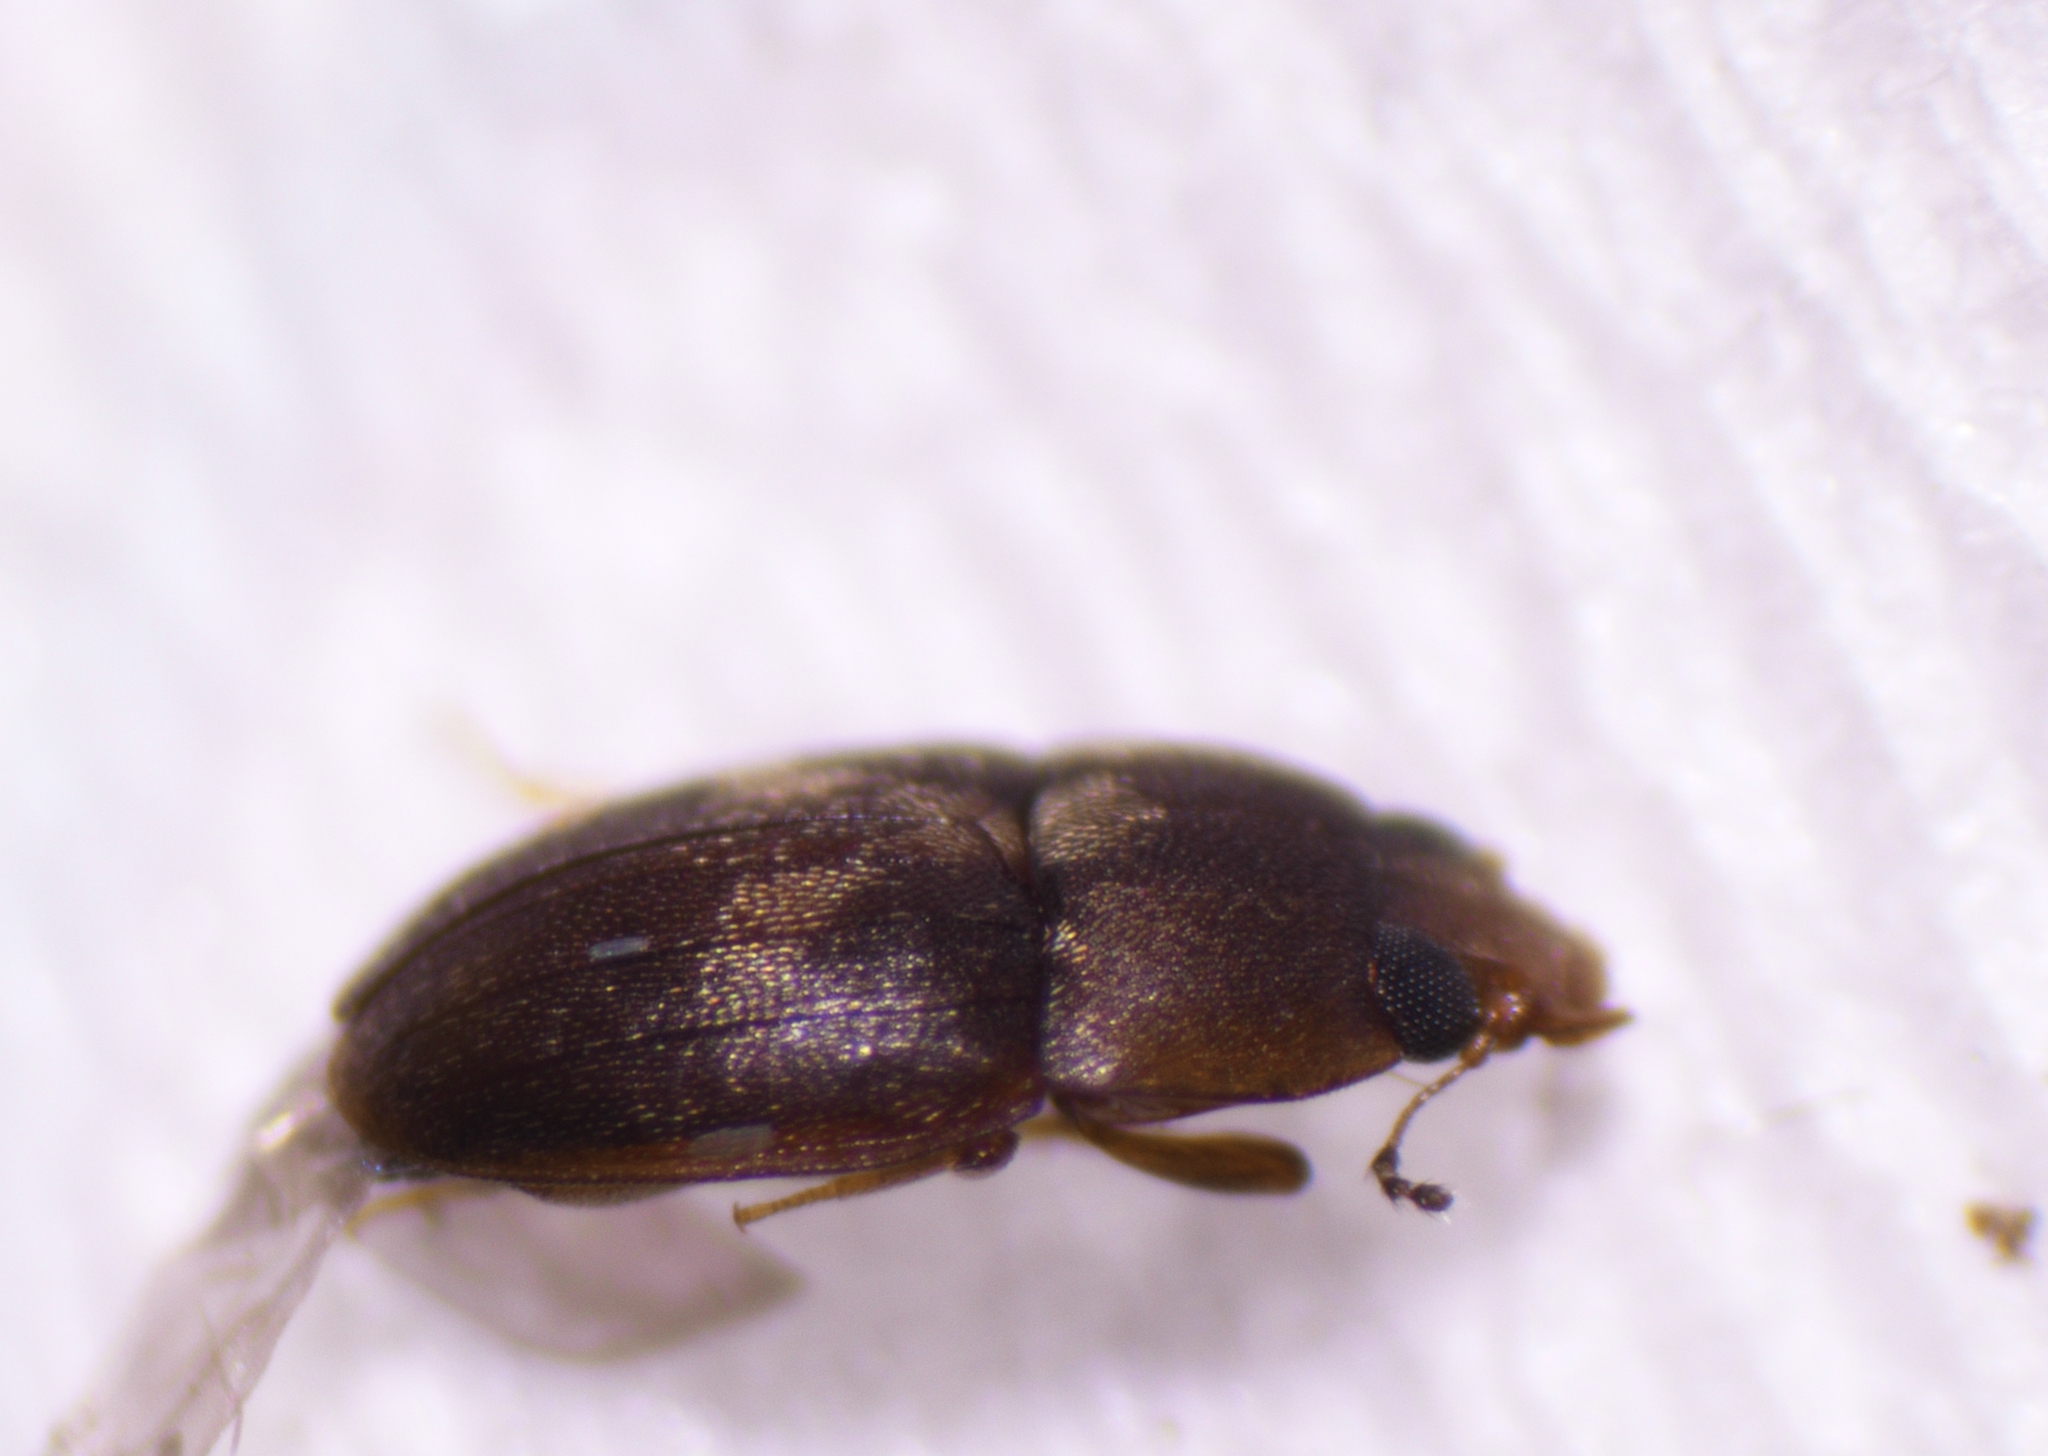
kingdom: Animalia
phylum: Arthropoda
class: Insecta
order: Coleoptera
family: Laemophloeidae
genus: Propalticus
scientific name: Propalticus oculatus
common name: Beetle
